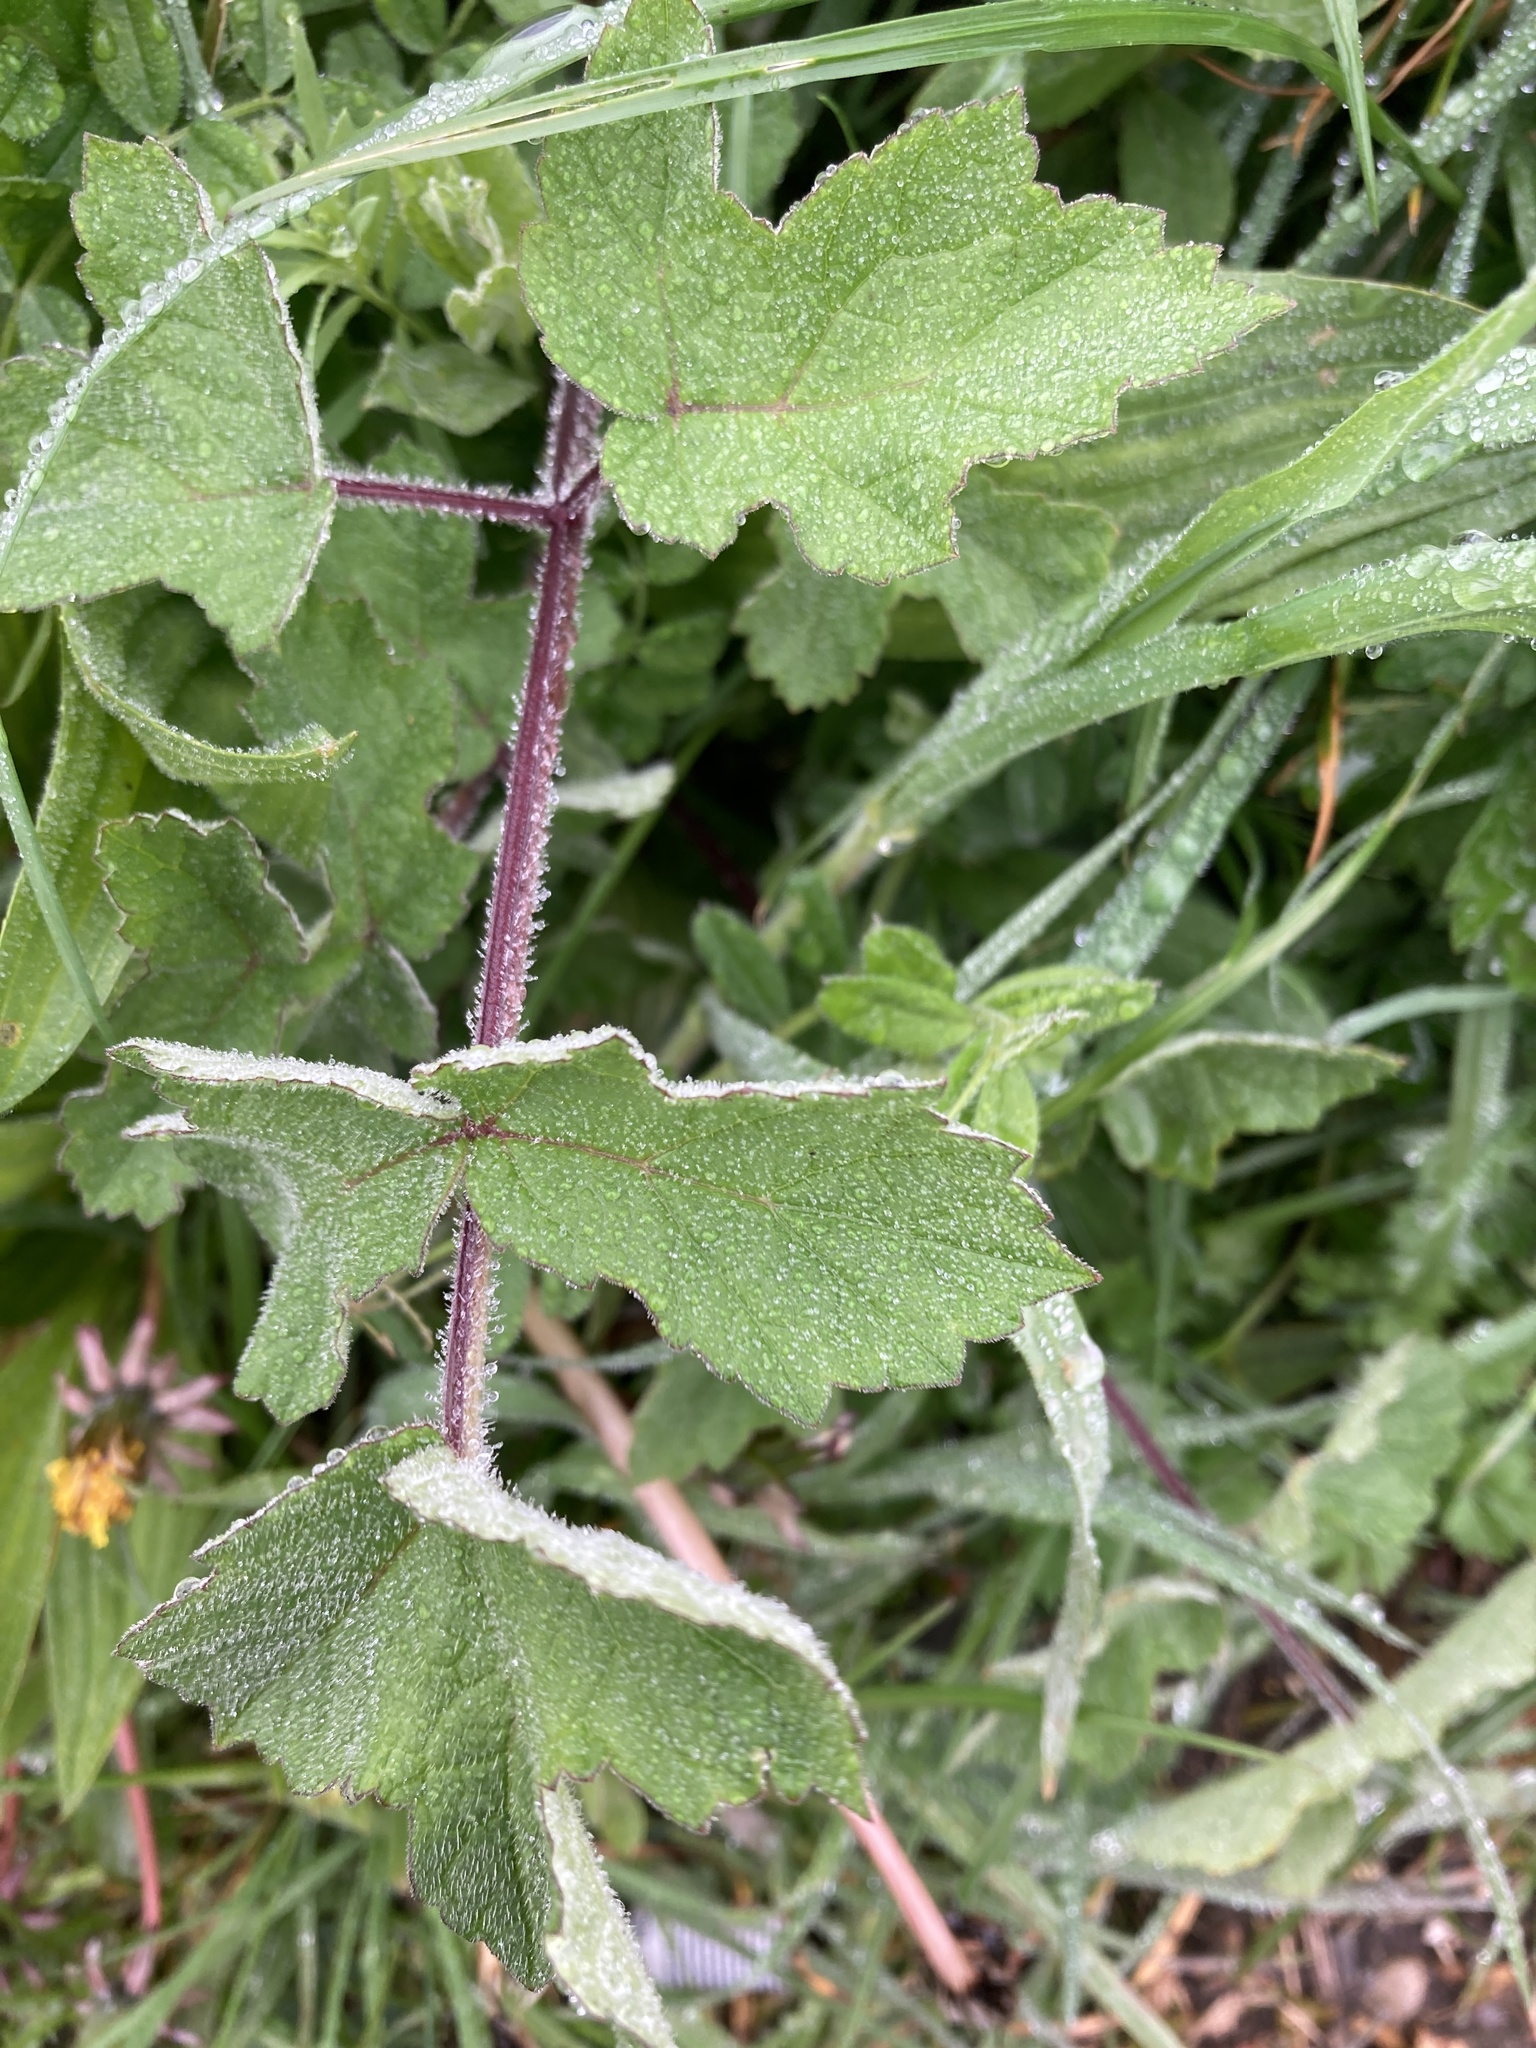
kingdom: Plantae
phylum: Tracheophyta
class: Magnoliopsida
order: Apiales
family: Apiaceae
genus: Heracleum
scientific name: Heracleum sphondylium
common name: Hogweed
